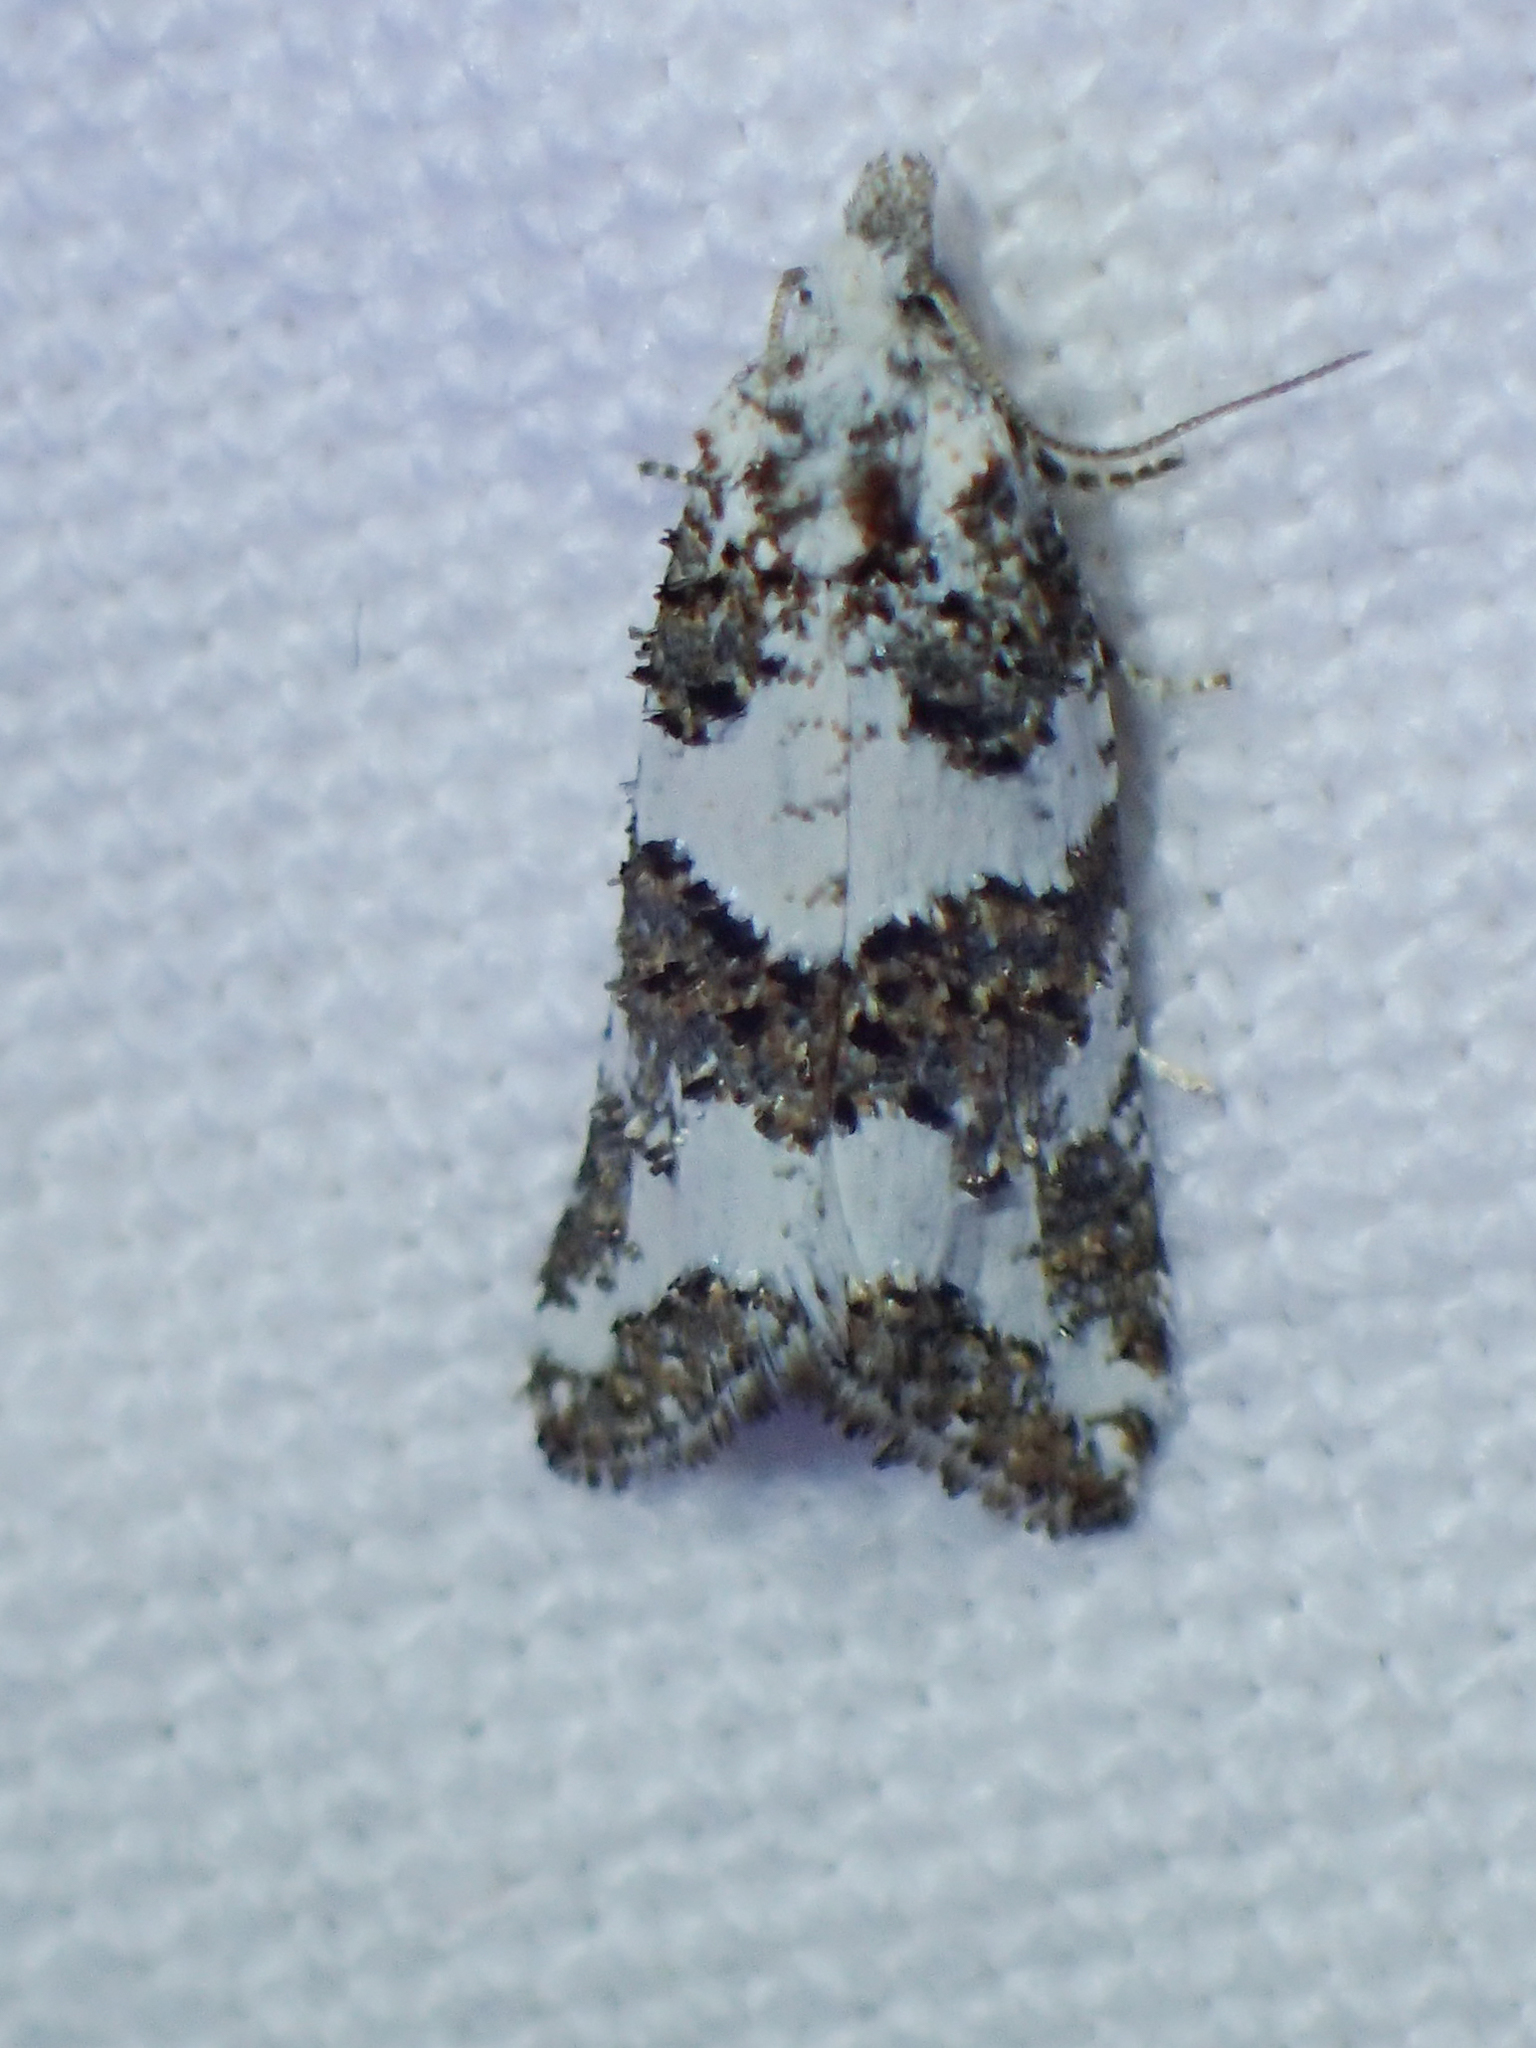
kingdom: Animalia
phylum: Arthropoda
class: Insecta
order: Lepidoptera
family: Tortricidae
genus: Xerocnephasia
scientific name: Xerocnephasia rigana
